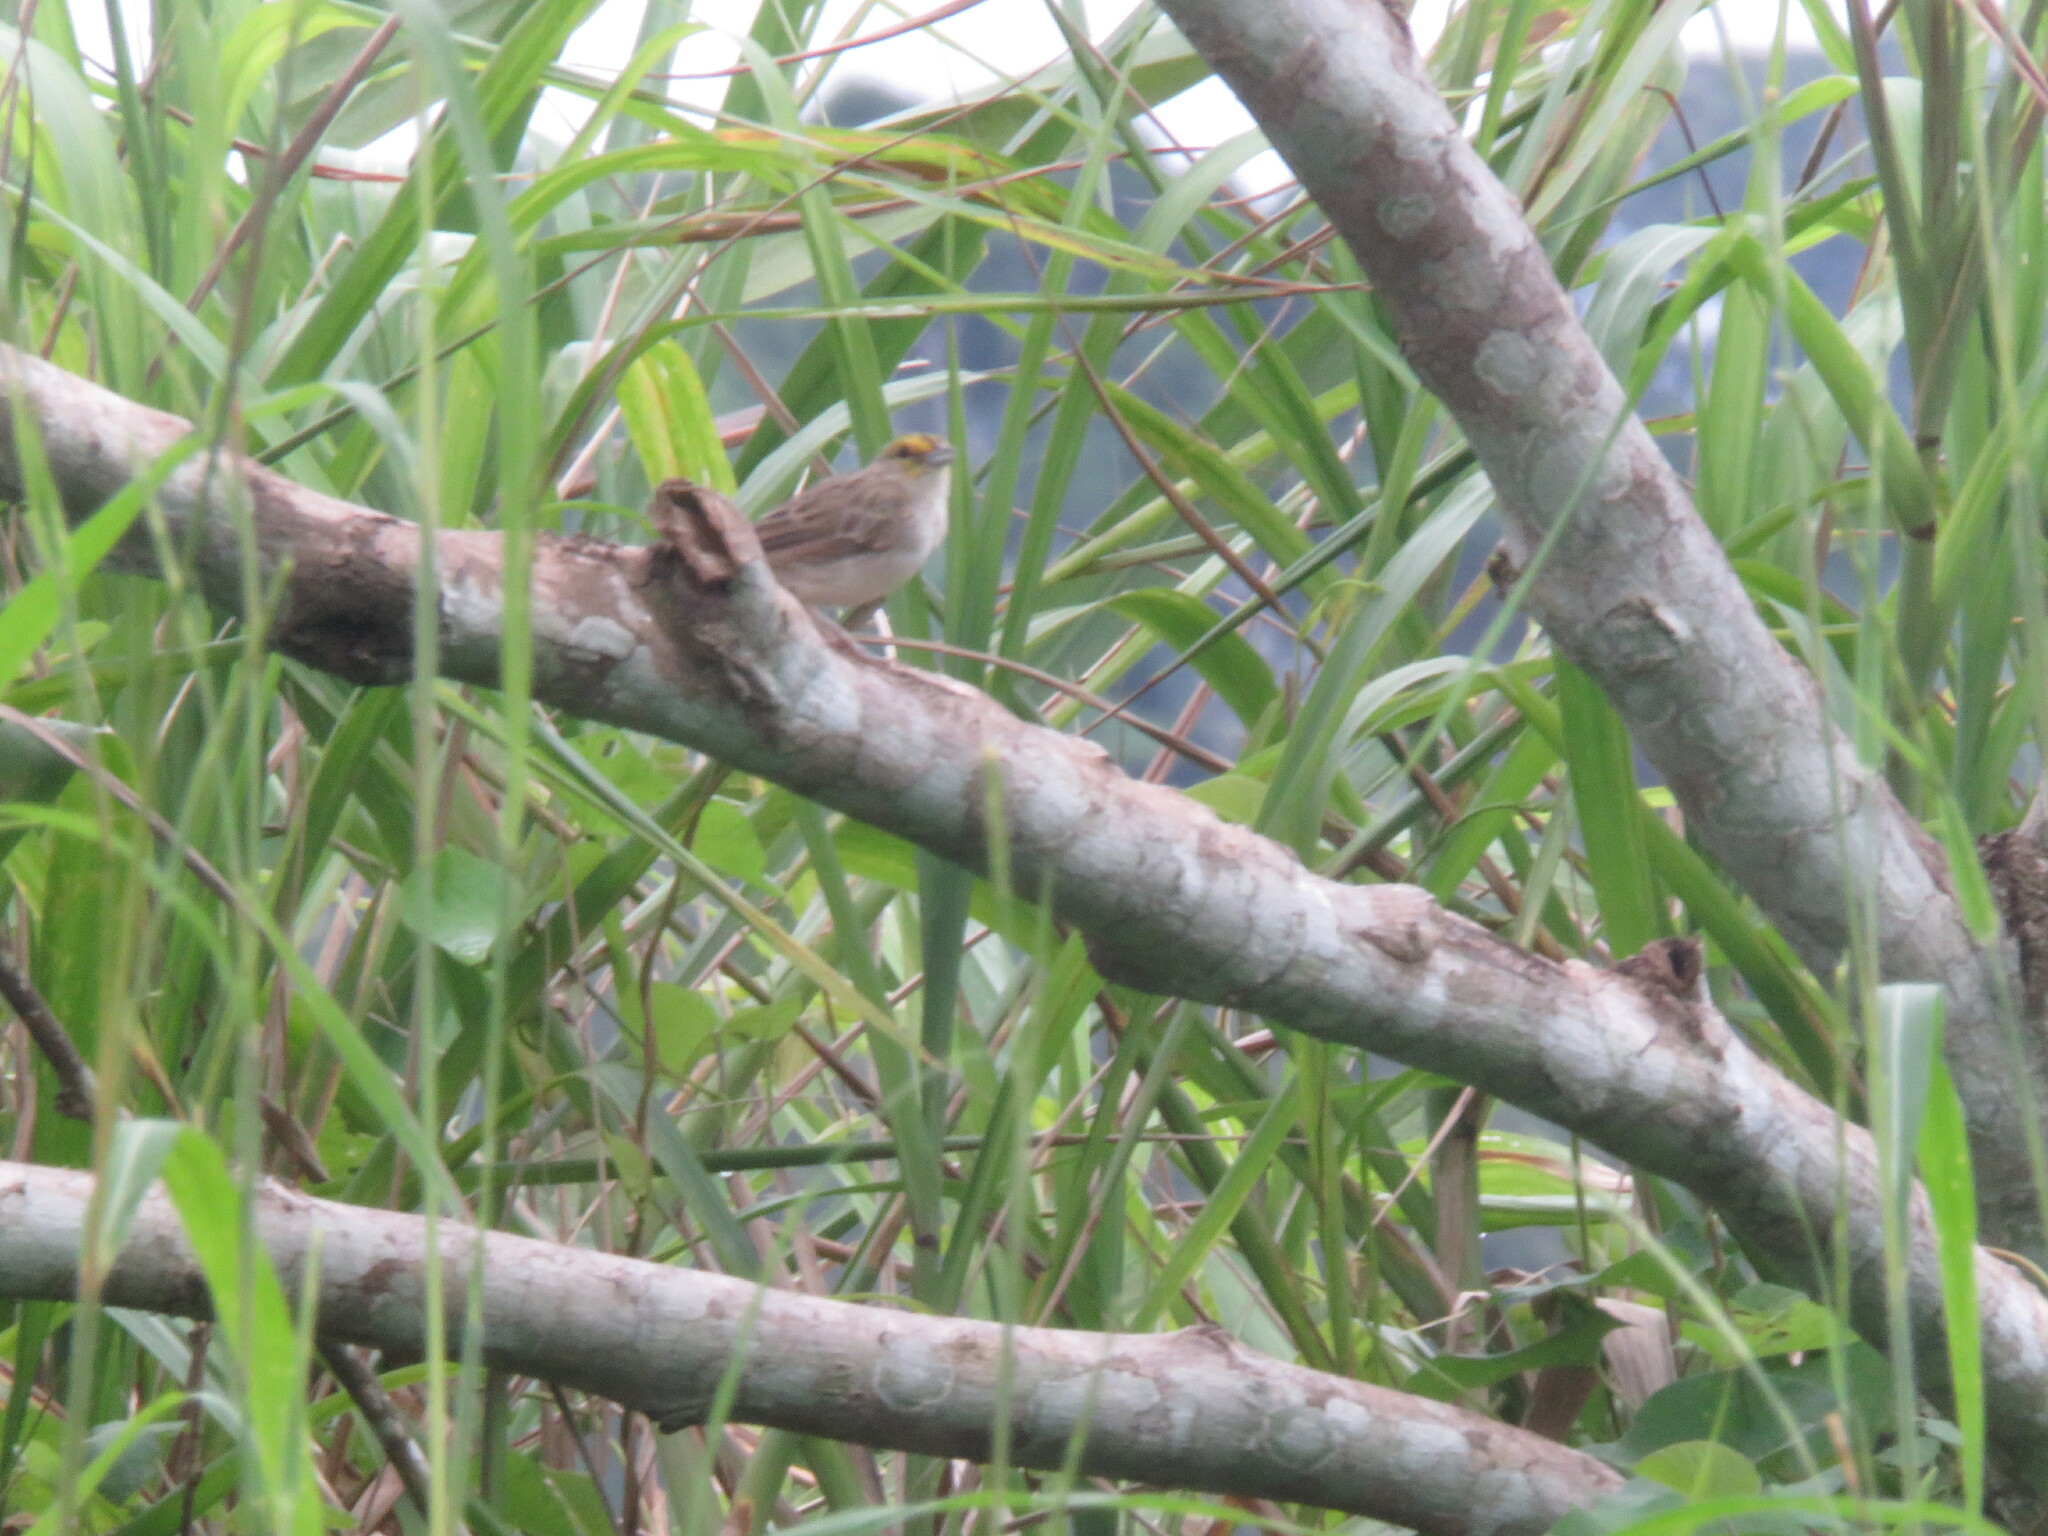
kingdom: Animalia
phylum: Chordata
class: Aves
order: Passeriformes
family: Passerellidae
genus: Ammodramus
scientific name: Ammodramus aurifrons
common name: Yellow-browed sparrow
